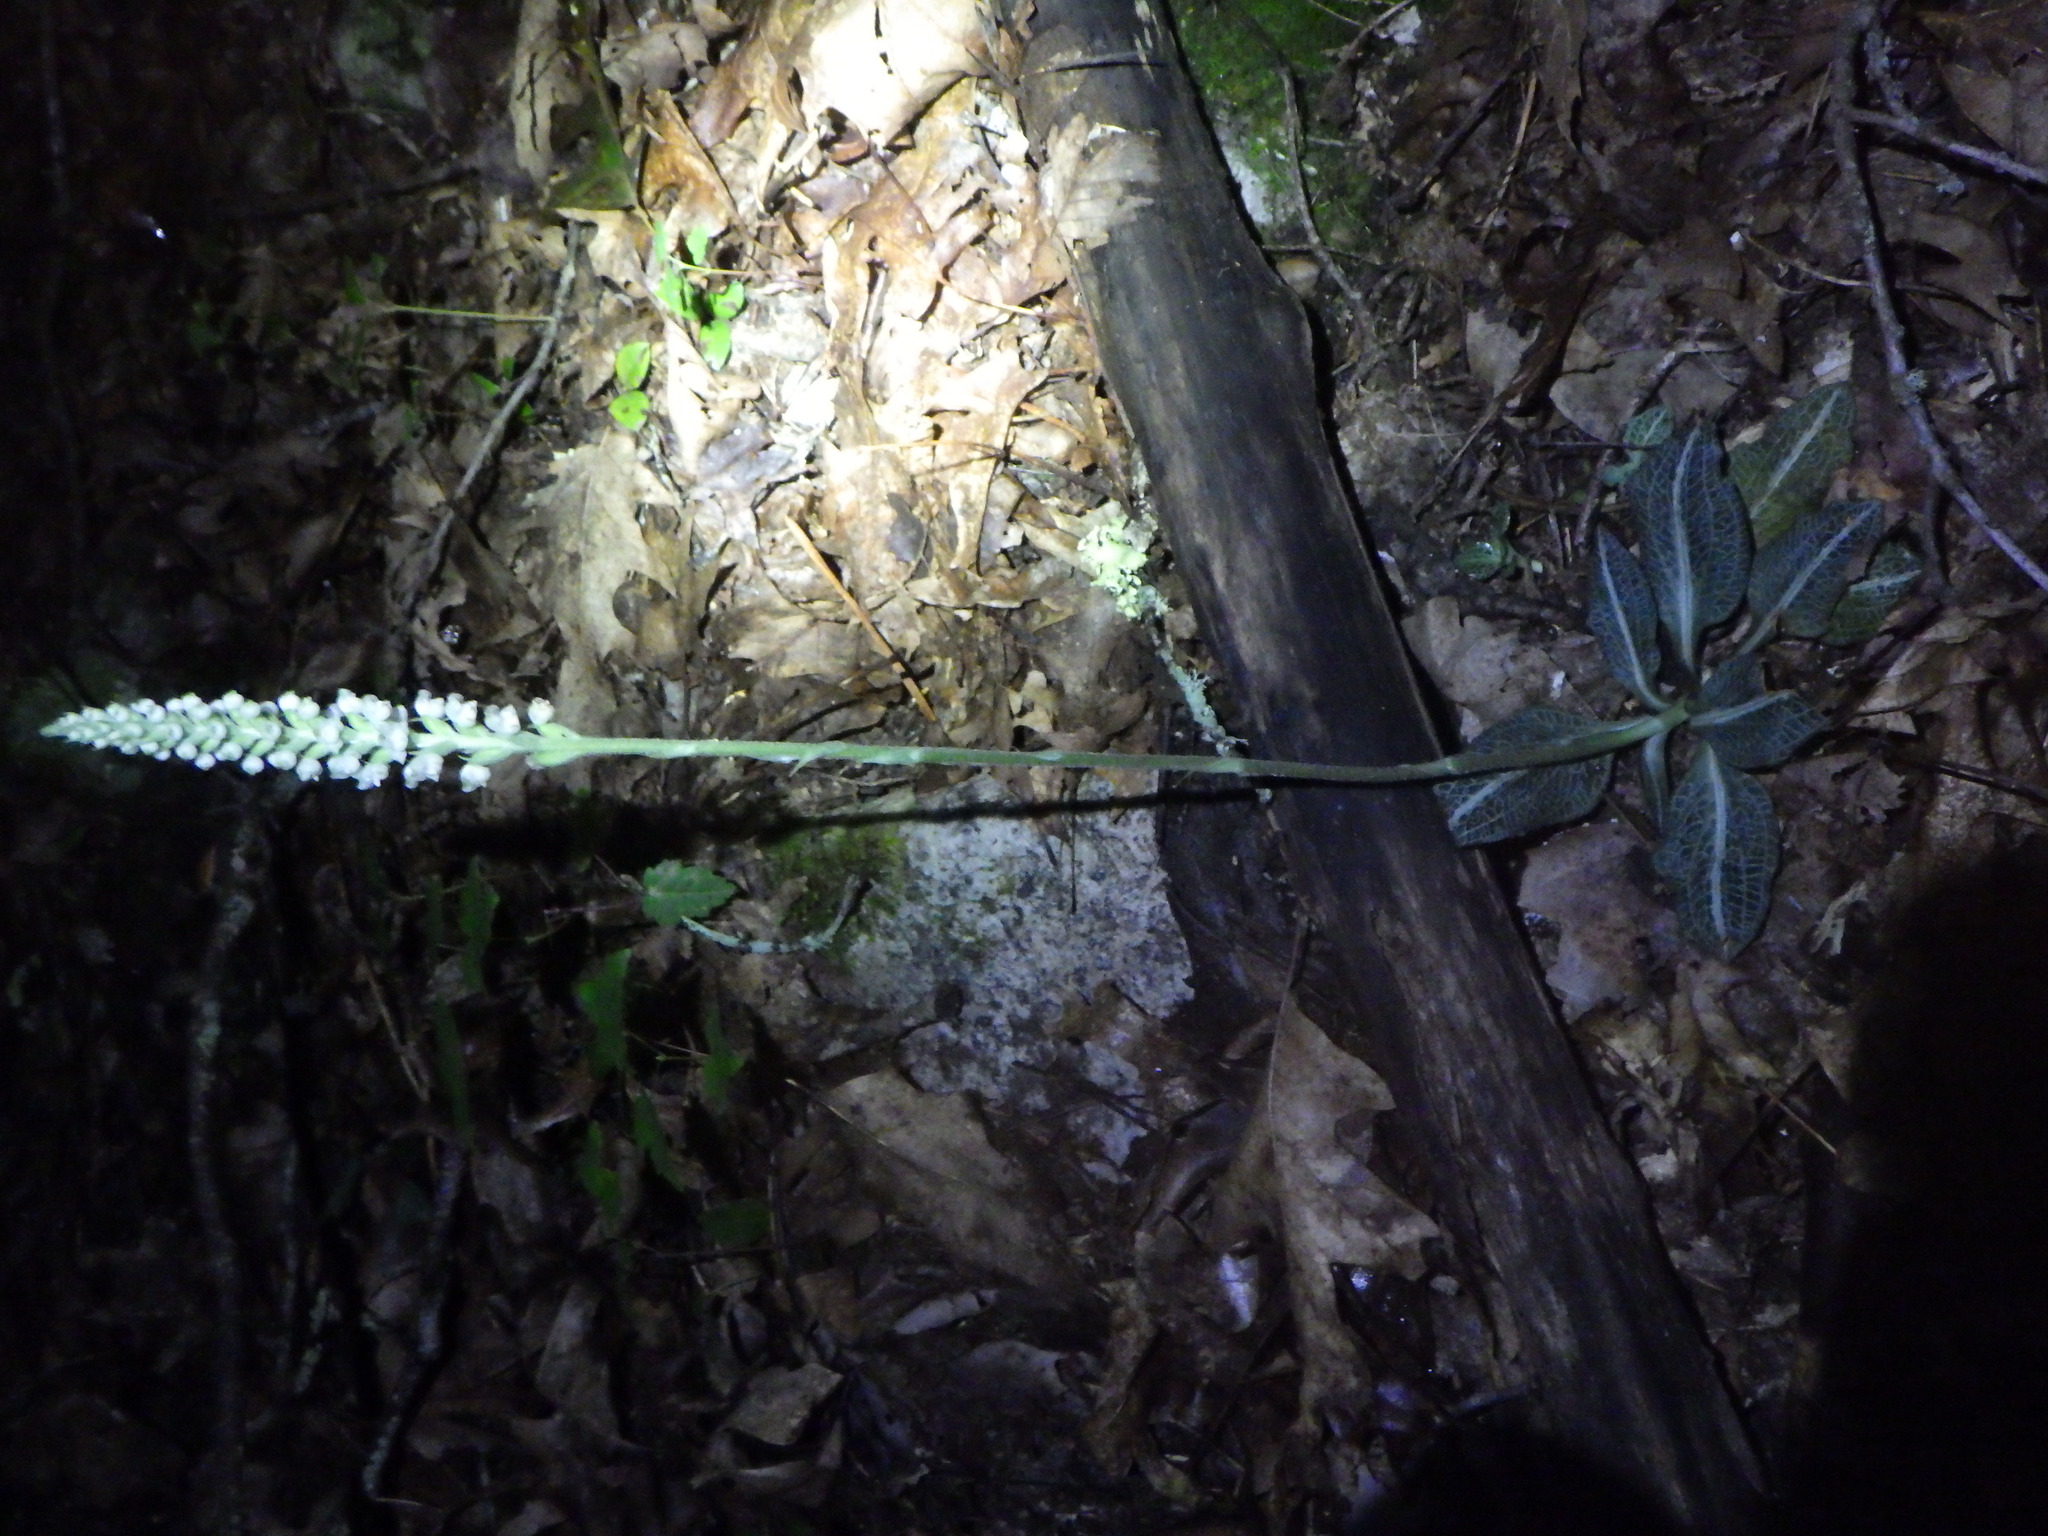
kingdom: Plantae
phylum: Tracheophyta
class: Liliopsida
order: Asparagales
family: Orchidaceae
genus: Goodyera
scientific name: Goodyera pubescens
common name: Downy rattlesnake-plantain
